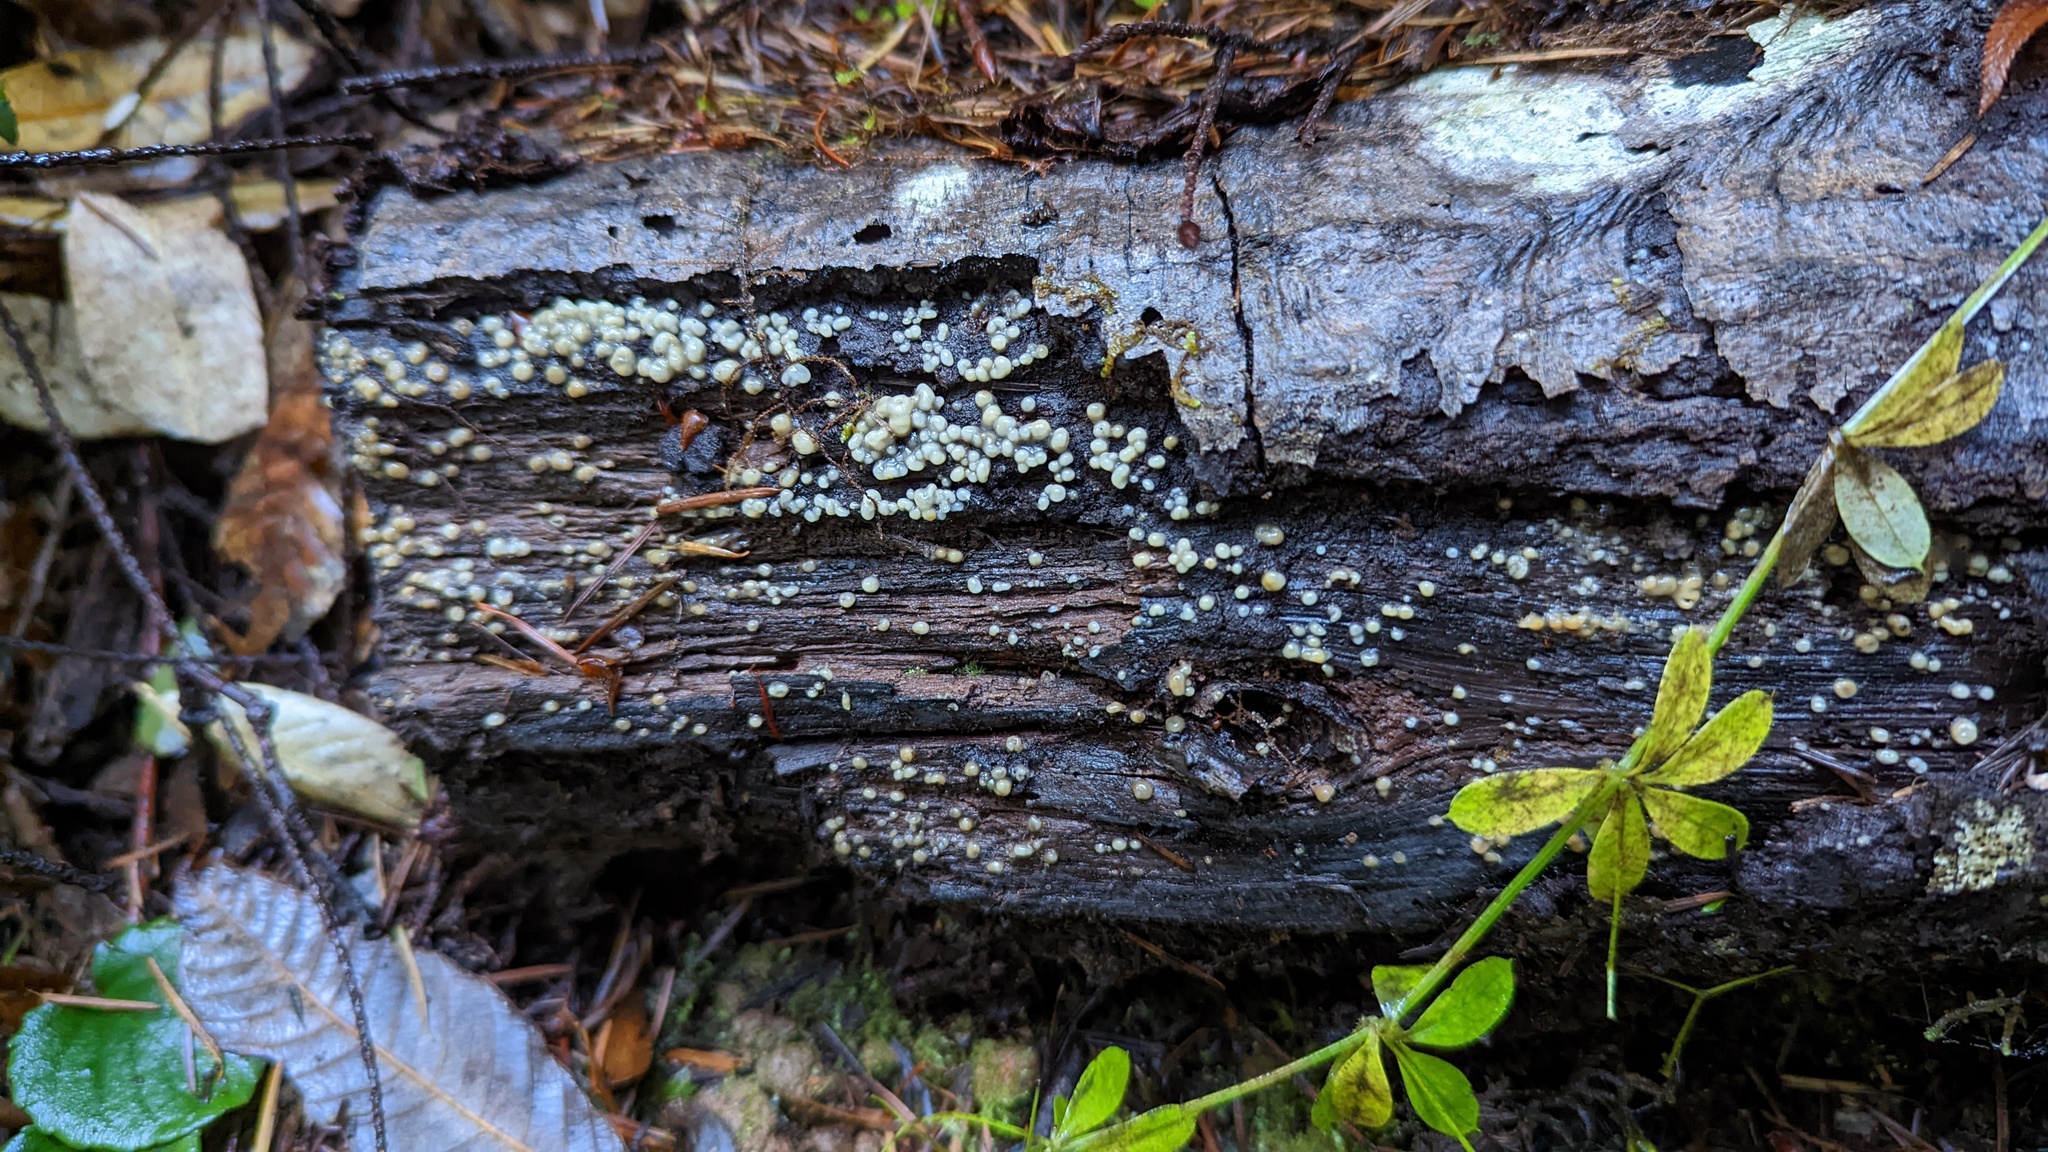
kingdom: Fungi
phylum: Basidiomycota
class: Atractiellomycetes
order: Atractiellales
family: Phleogenaceae
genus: Helicogloea
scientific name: Helicogloea compressa
